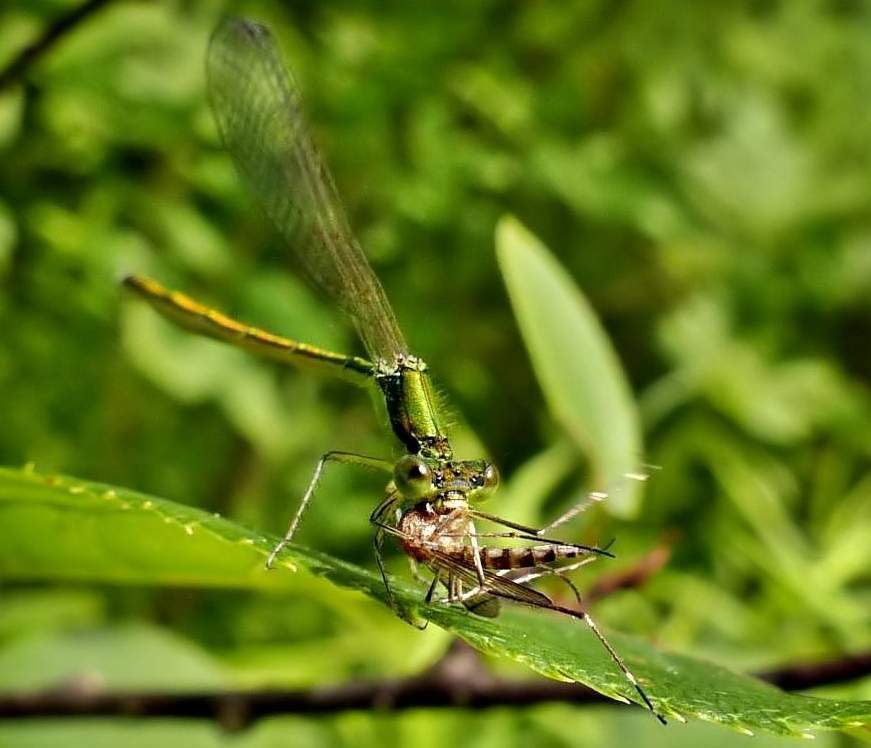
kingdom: Animalia
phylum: Arthropoda
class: Insecta
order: Odonata
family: Coenagrionidae
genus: Nehalennia
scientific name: Nehalennia irene
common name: Sedge sprite
